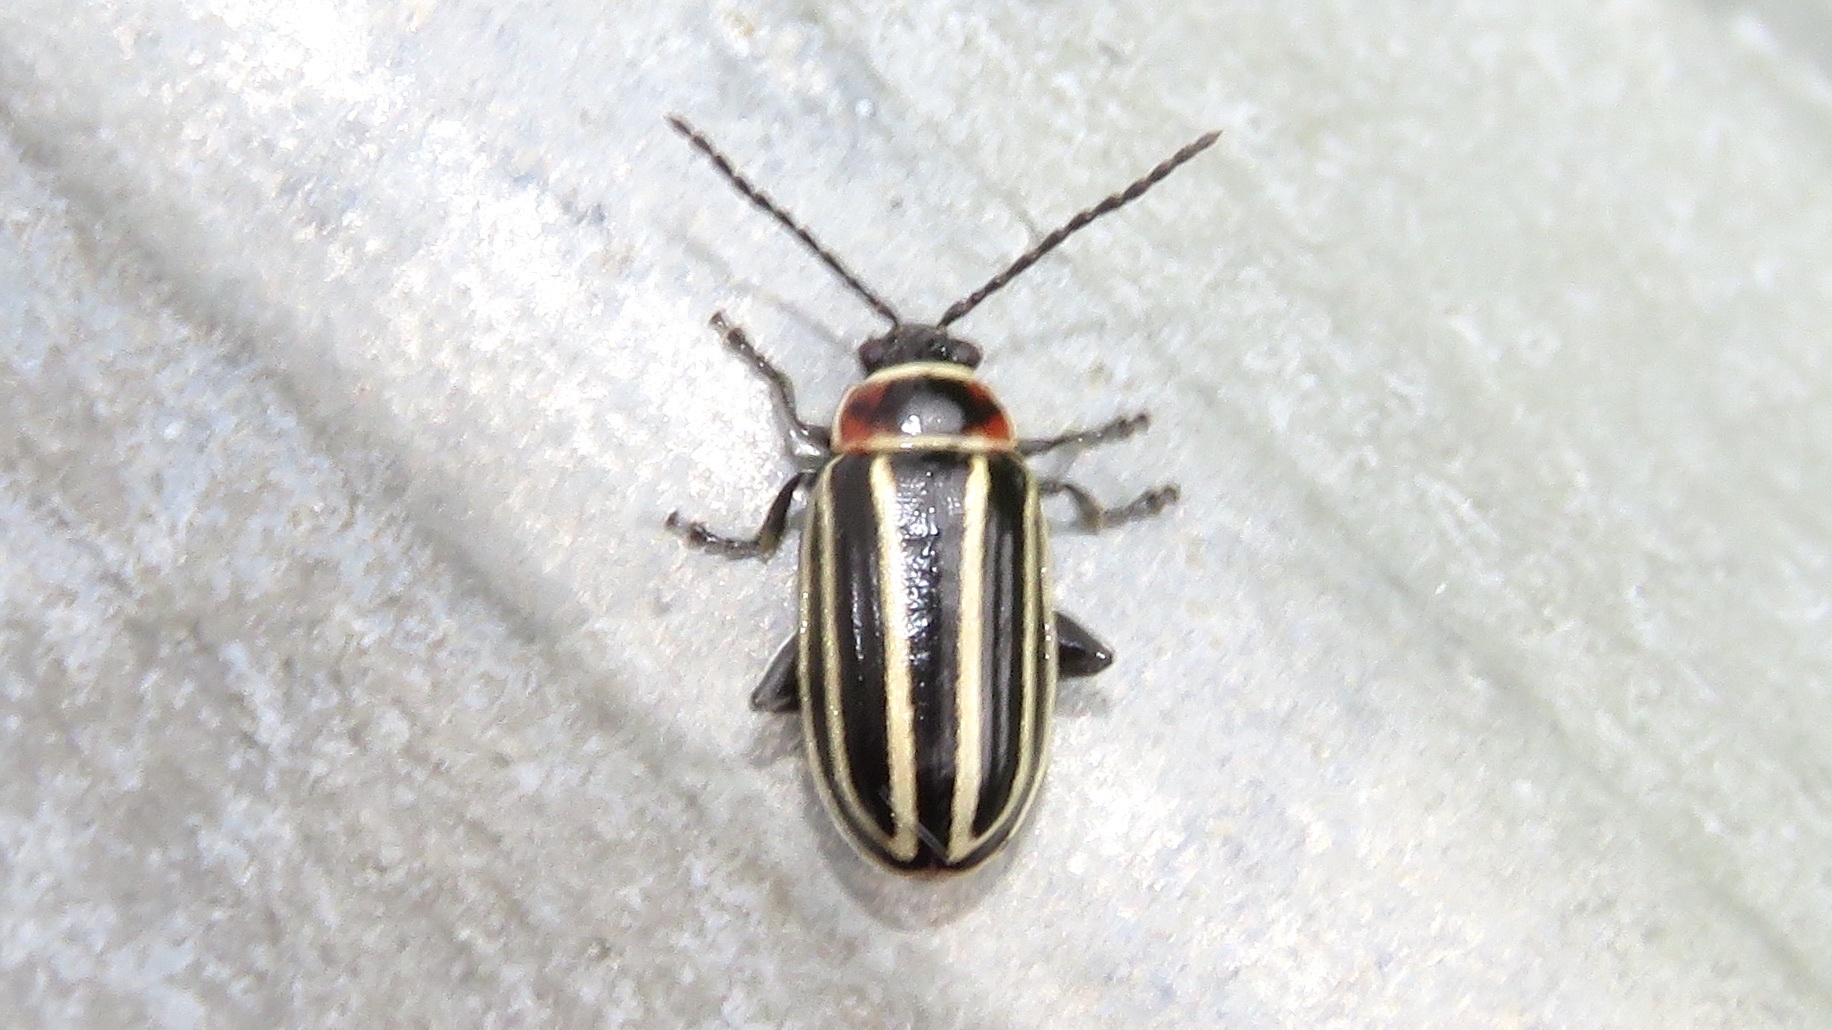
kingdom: Animalia
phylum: Arthropoda
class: Insecta
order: Coleoptera
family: Chrysomelidae
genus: Disonycha
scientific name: Disonycha pensylvanica
